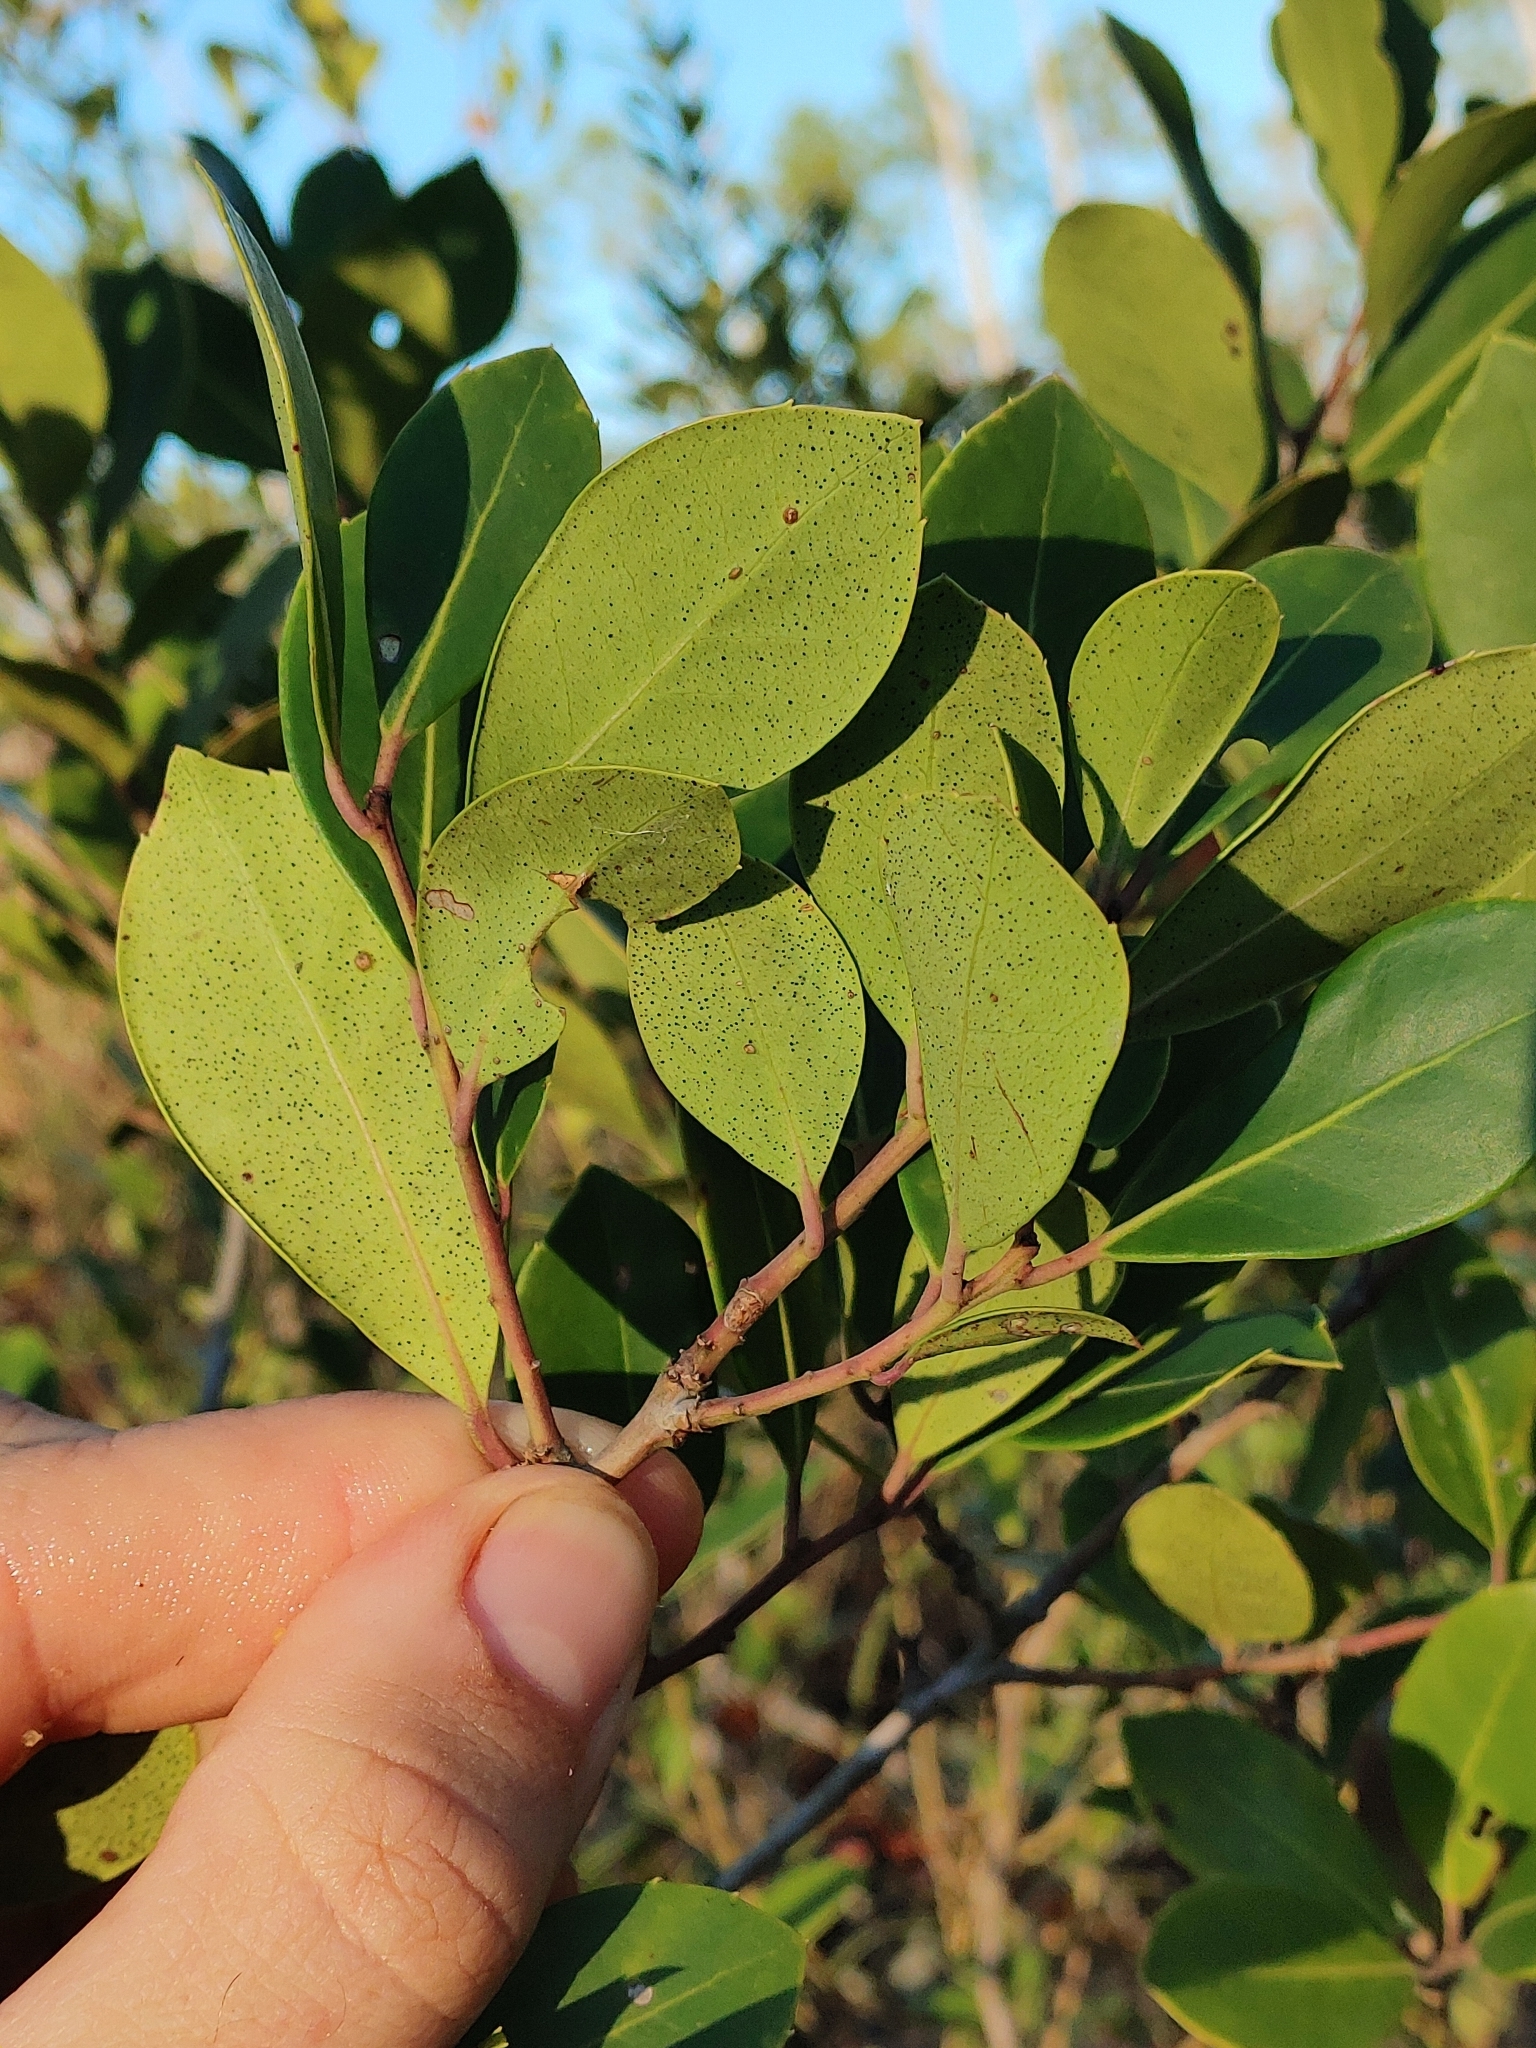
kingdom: Plantae
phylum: Tracheophyta
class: Magnoliopsida
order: Aquifoliales
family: Aquifoliaceae
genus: Ilex
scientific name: Ilex coriacea
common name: Sweet gallberry
